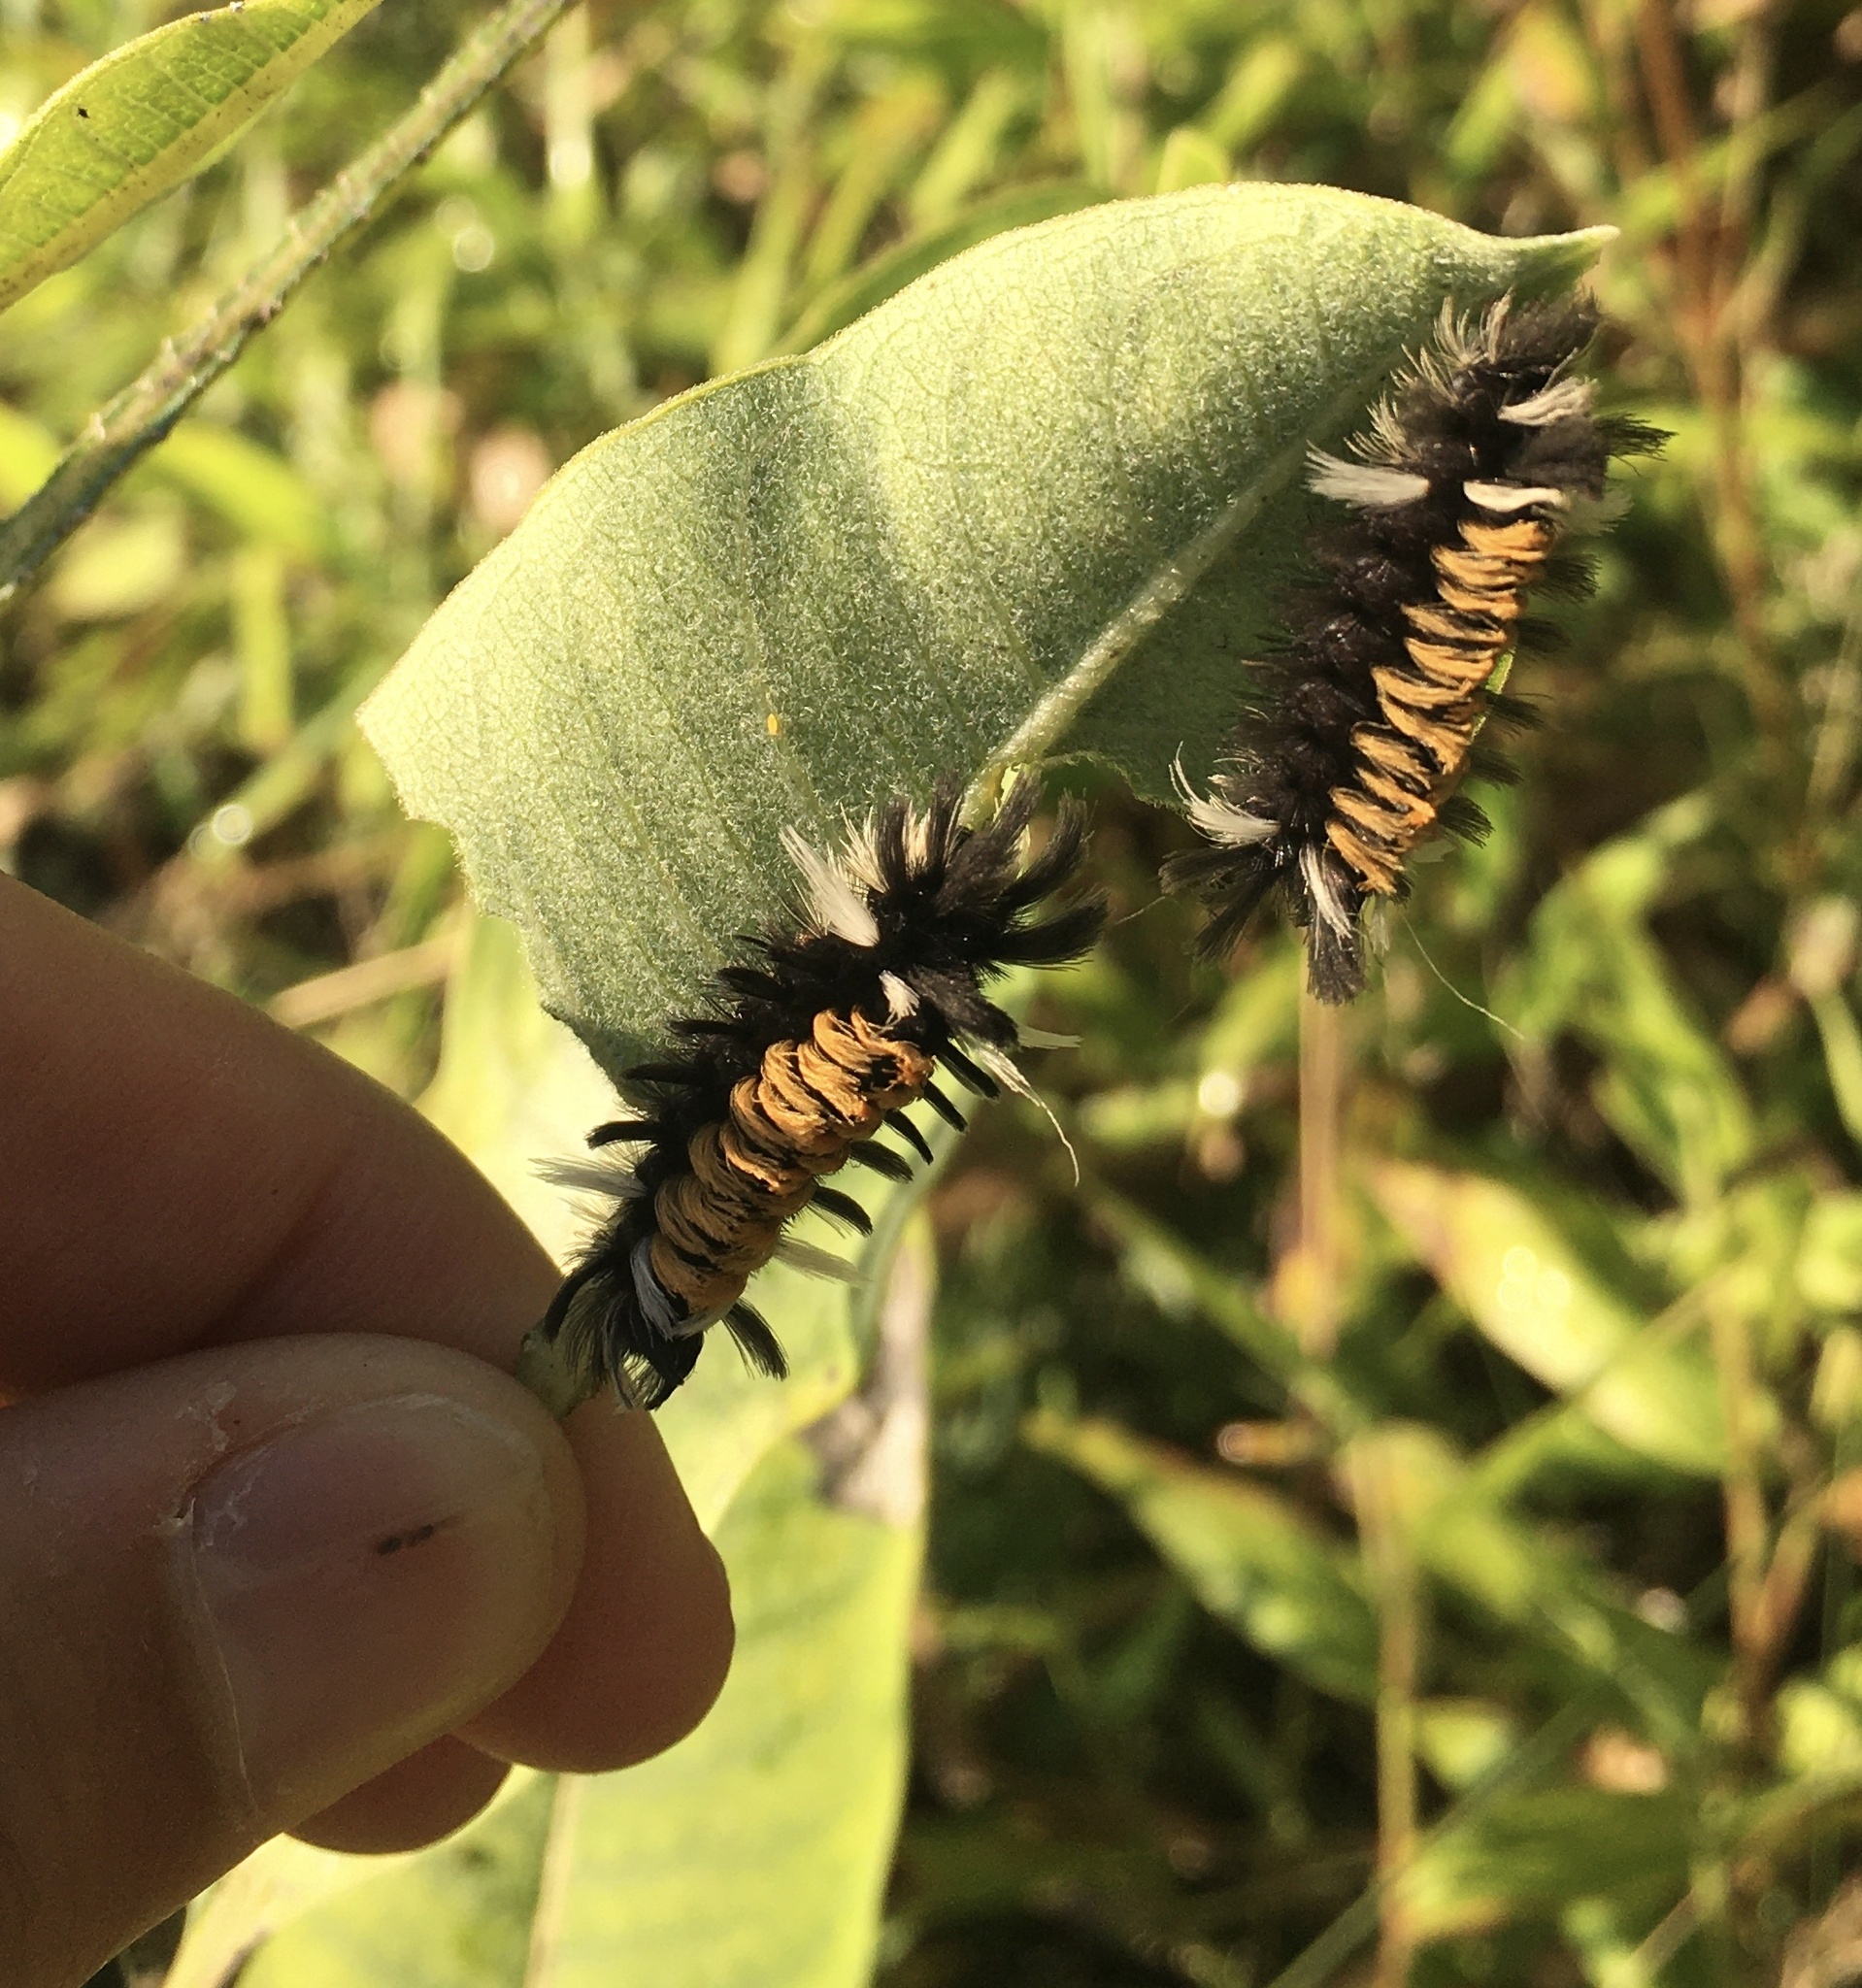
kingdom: Animalia
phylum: Arthropoda
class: Insecta
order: Lepidoptera
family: Erebidae
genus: Euchaetes
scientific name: Euchaetes egle
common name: Milkweed tussock moth
